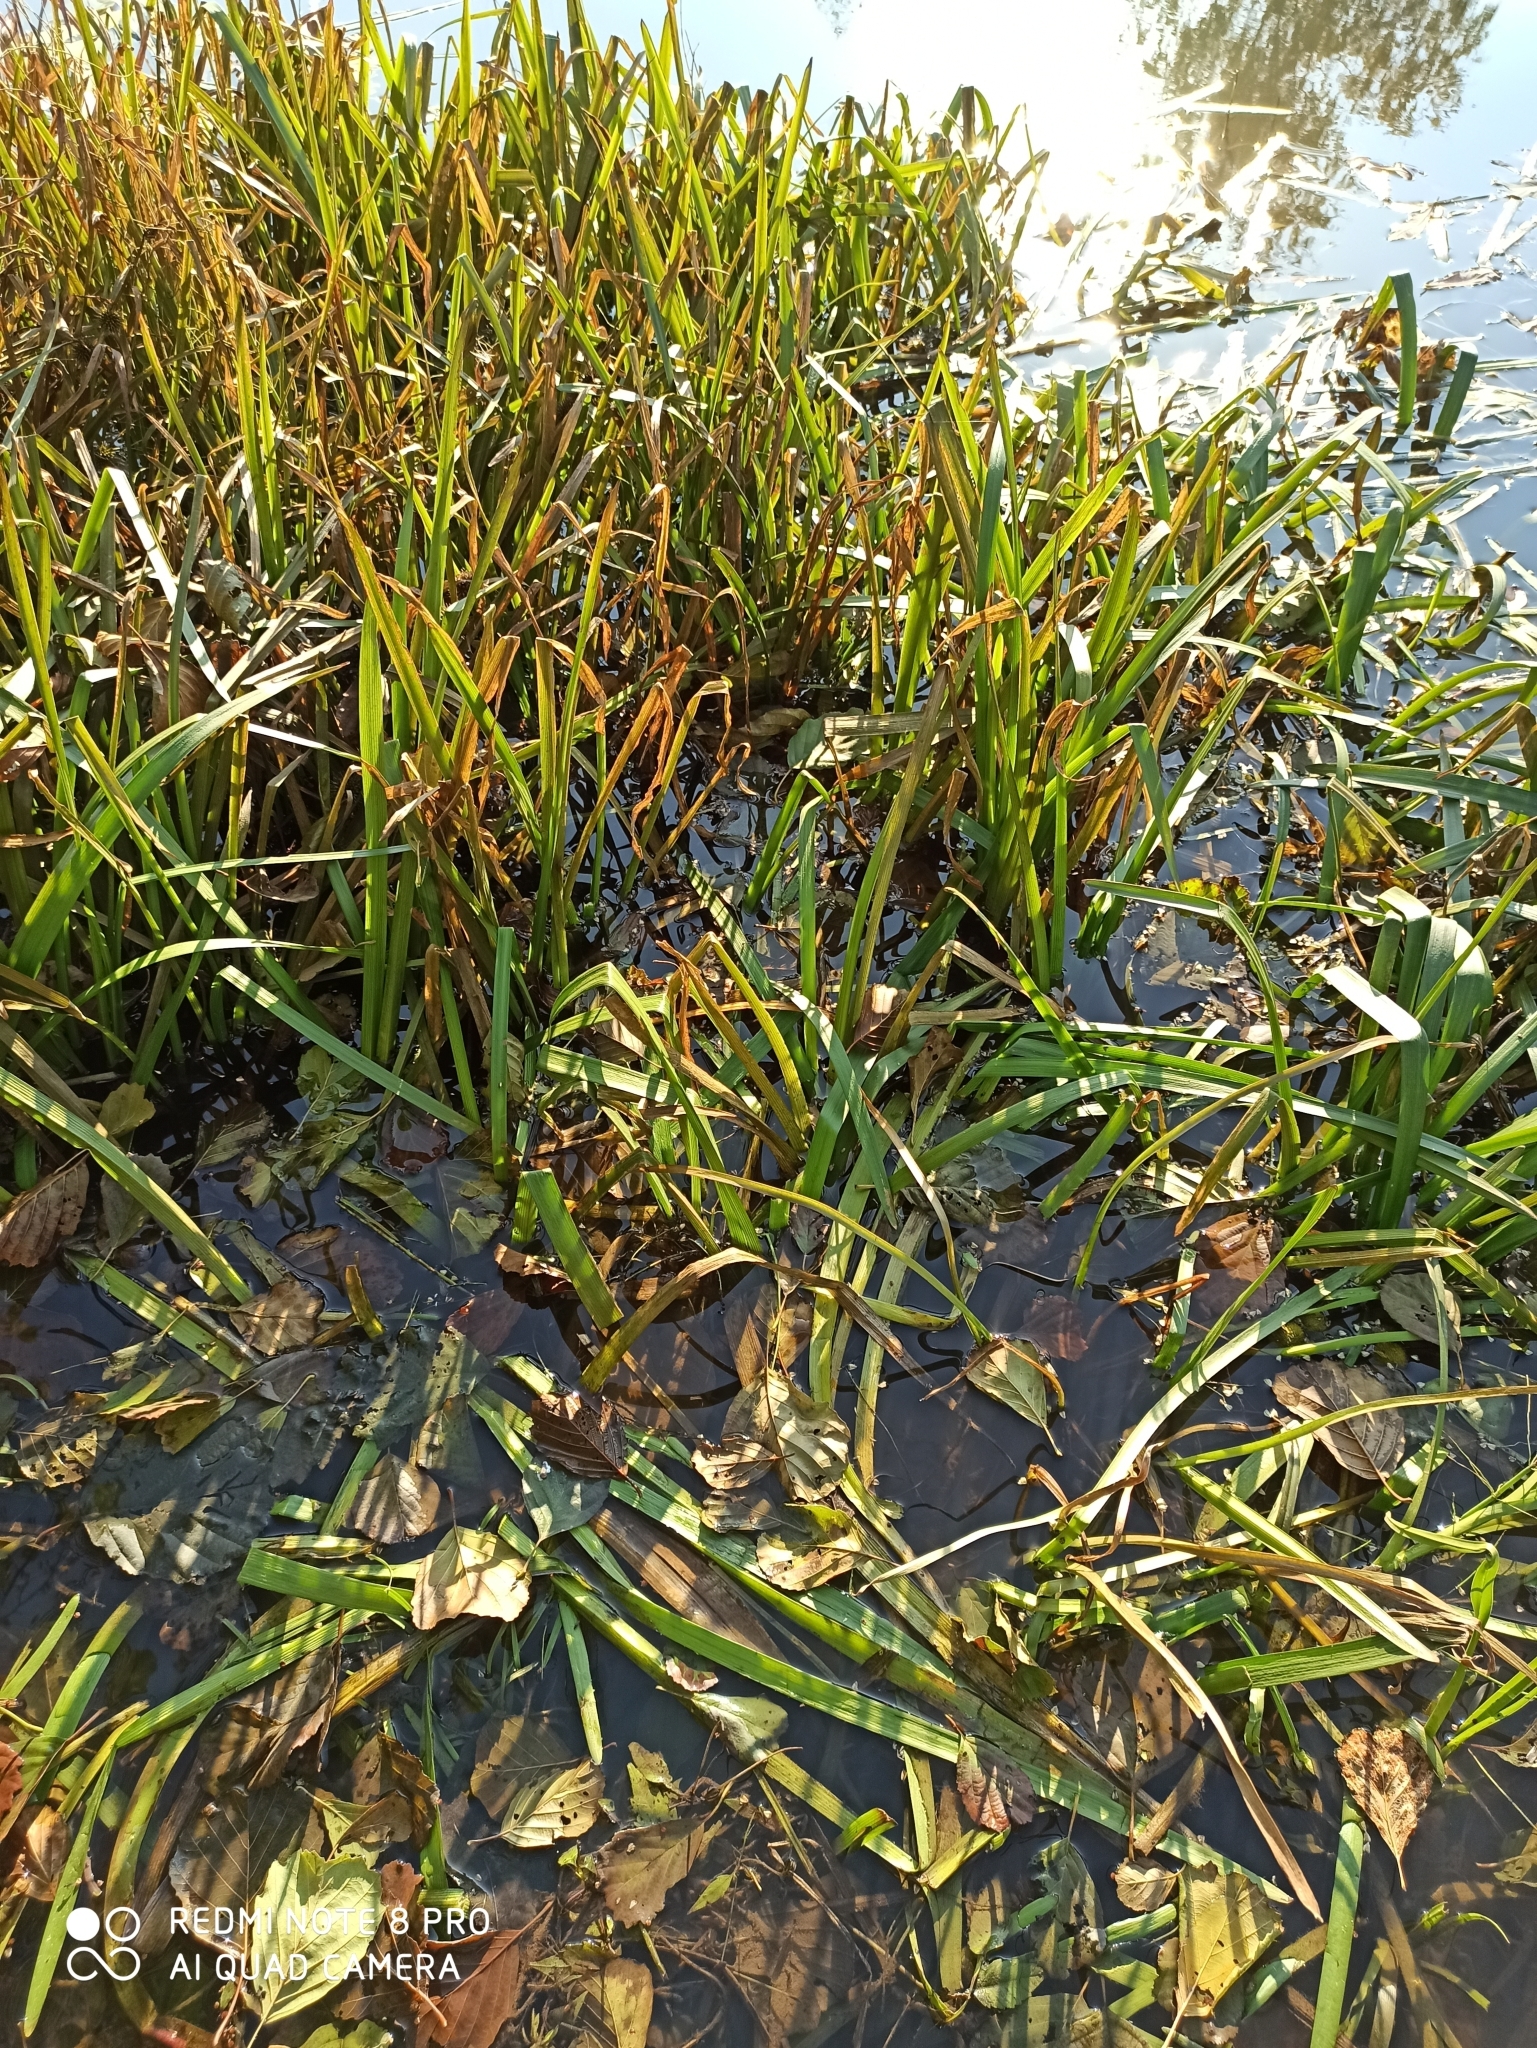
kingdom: Plantae
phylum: Tracheophyta
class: Liliopsida
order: Poales
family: Typhaceae
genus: Sparganium
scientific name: Sparganium emersum
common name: Unbranched bur-reed
